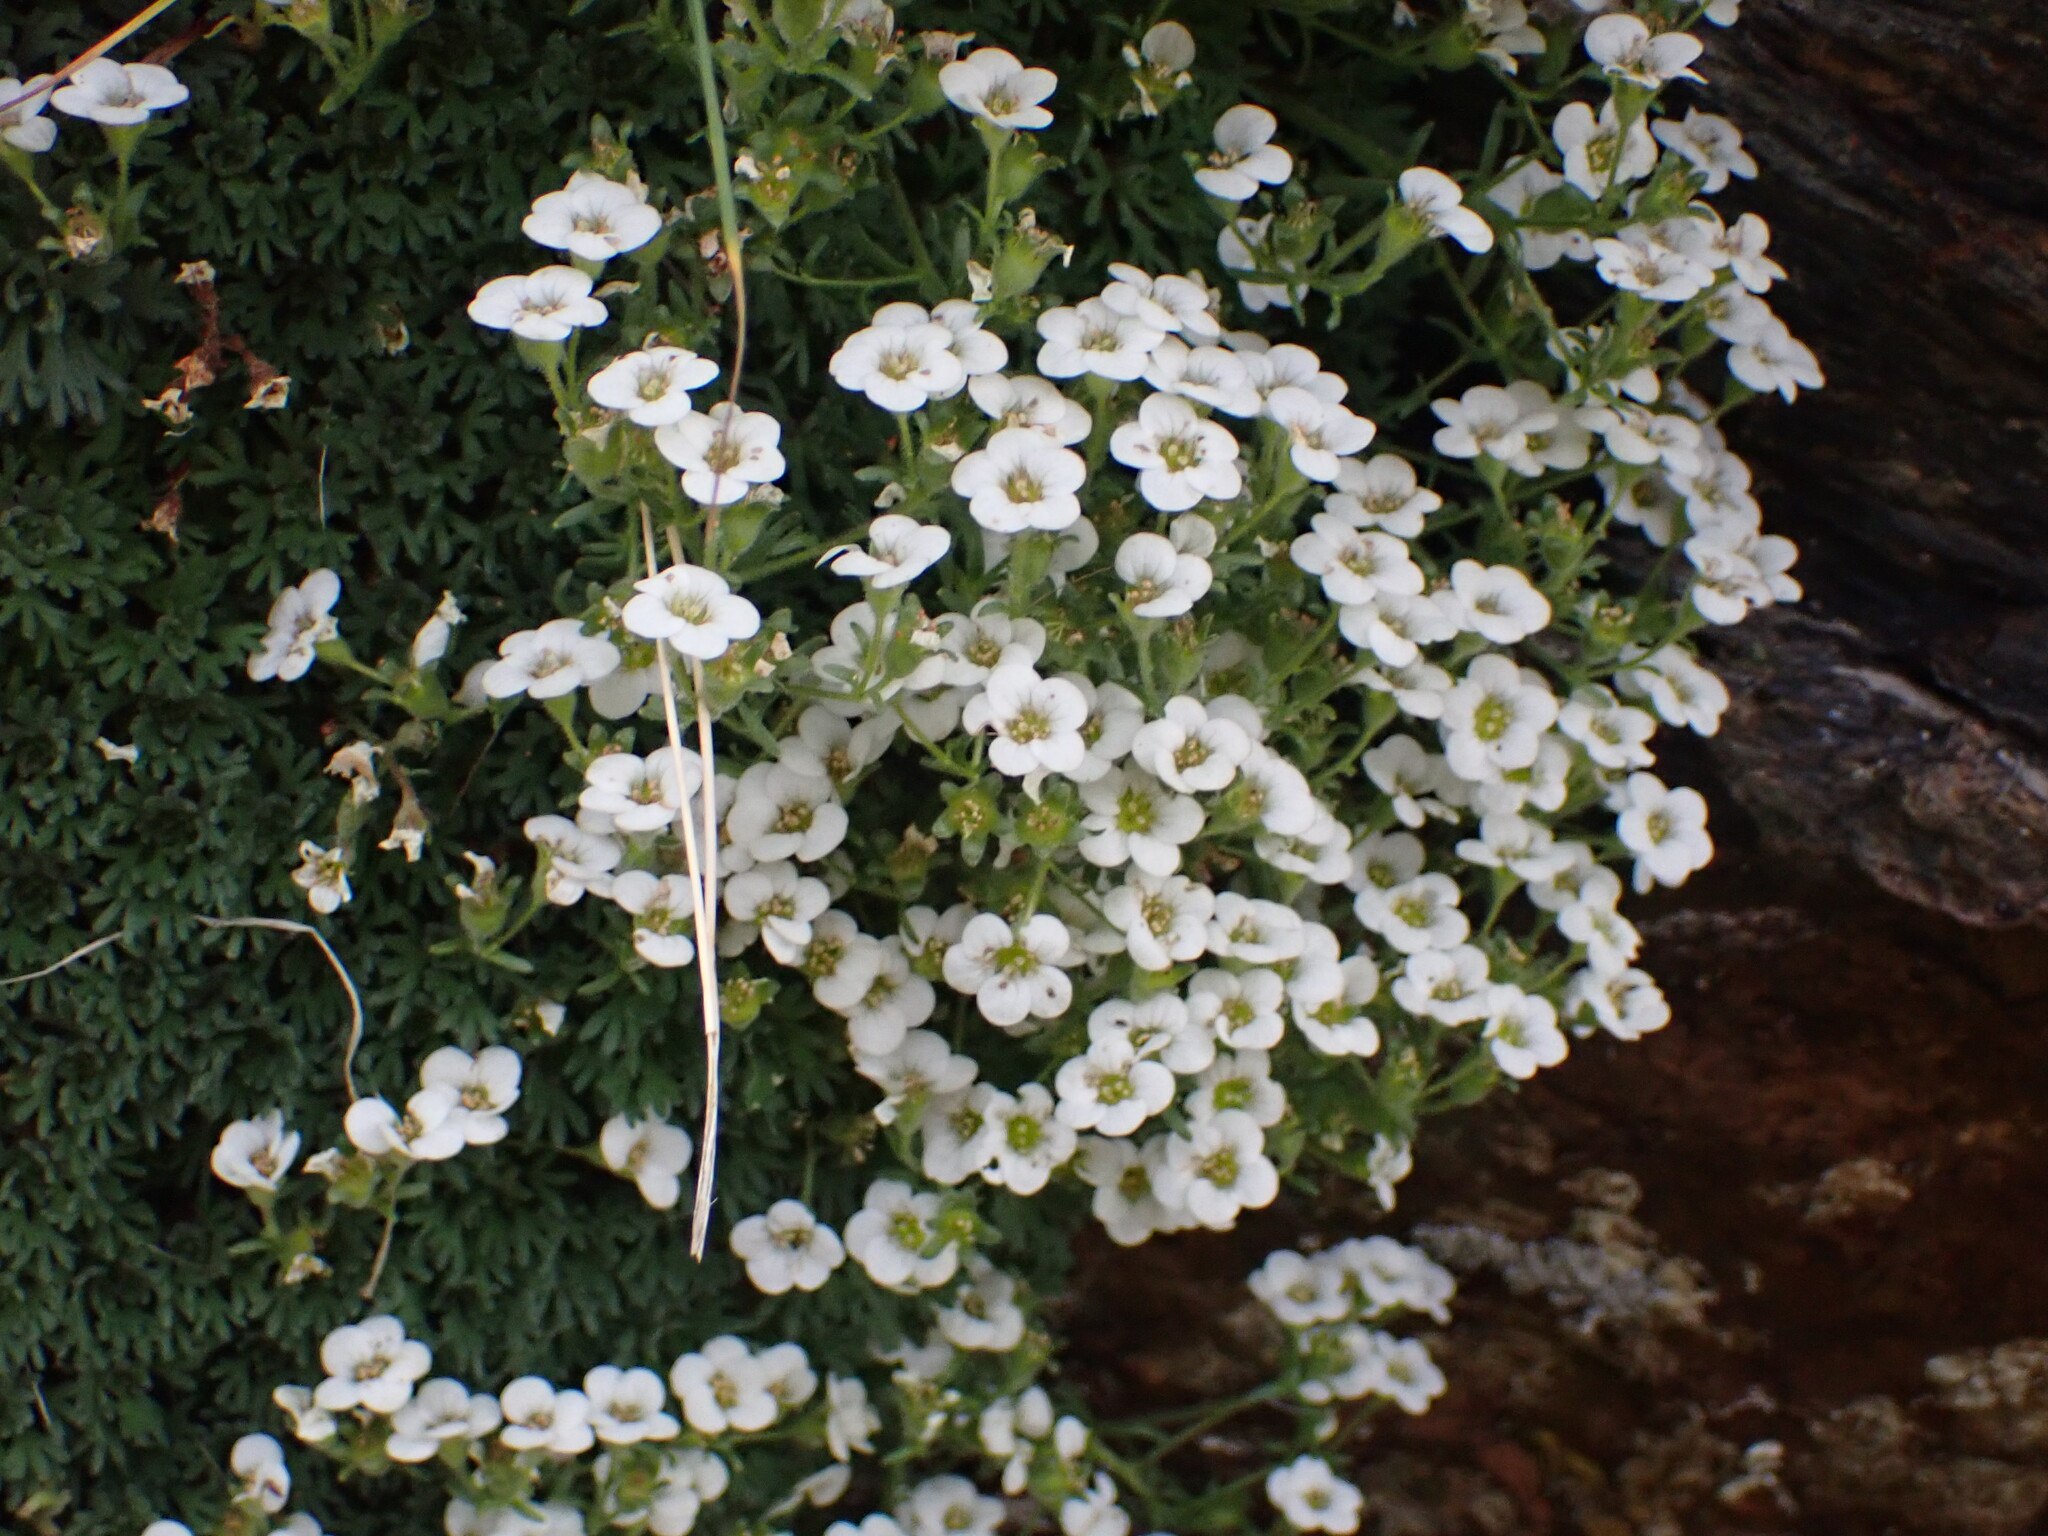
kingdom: Plantae
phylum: Tracheophyta
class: Magnoliopsida
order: Saxifragales
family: Saxifragaceae
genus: Saxifraga
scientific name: Saxifraga pubescens
